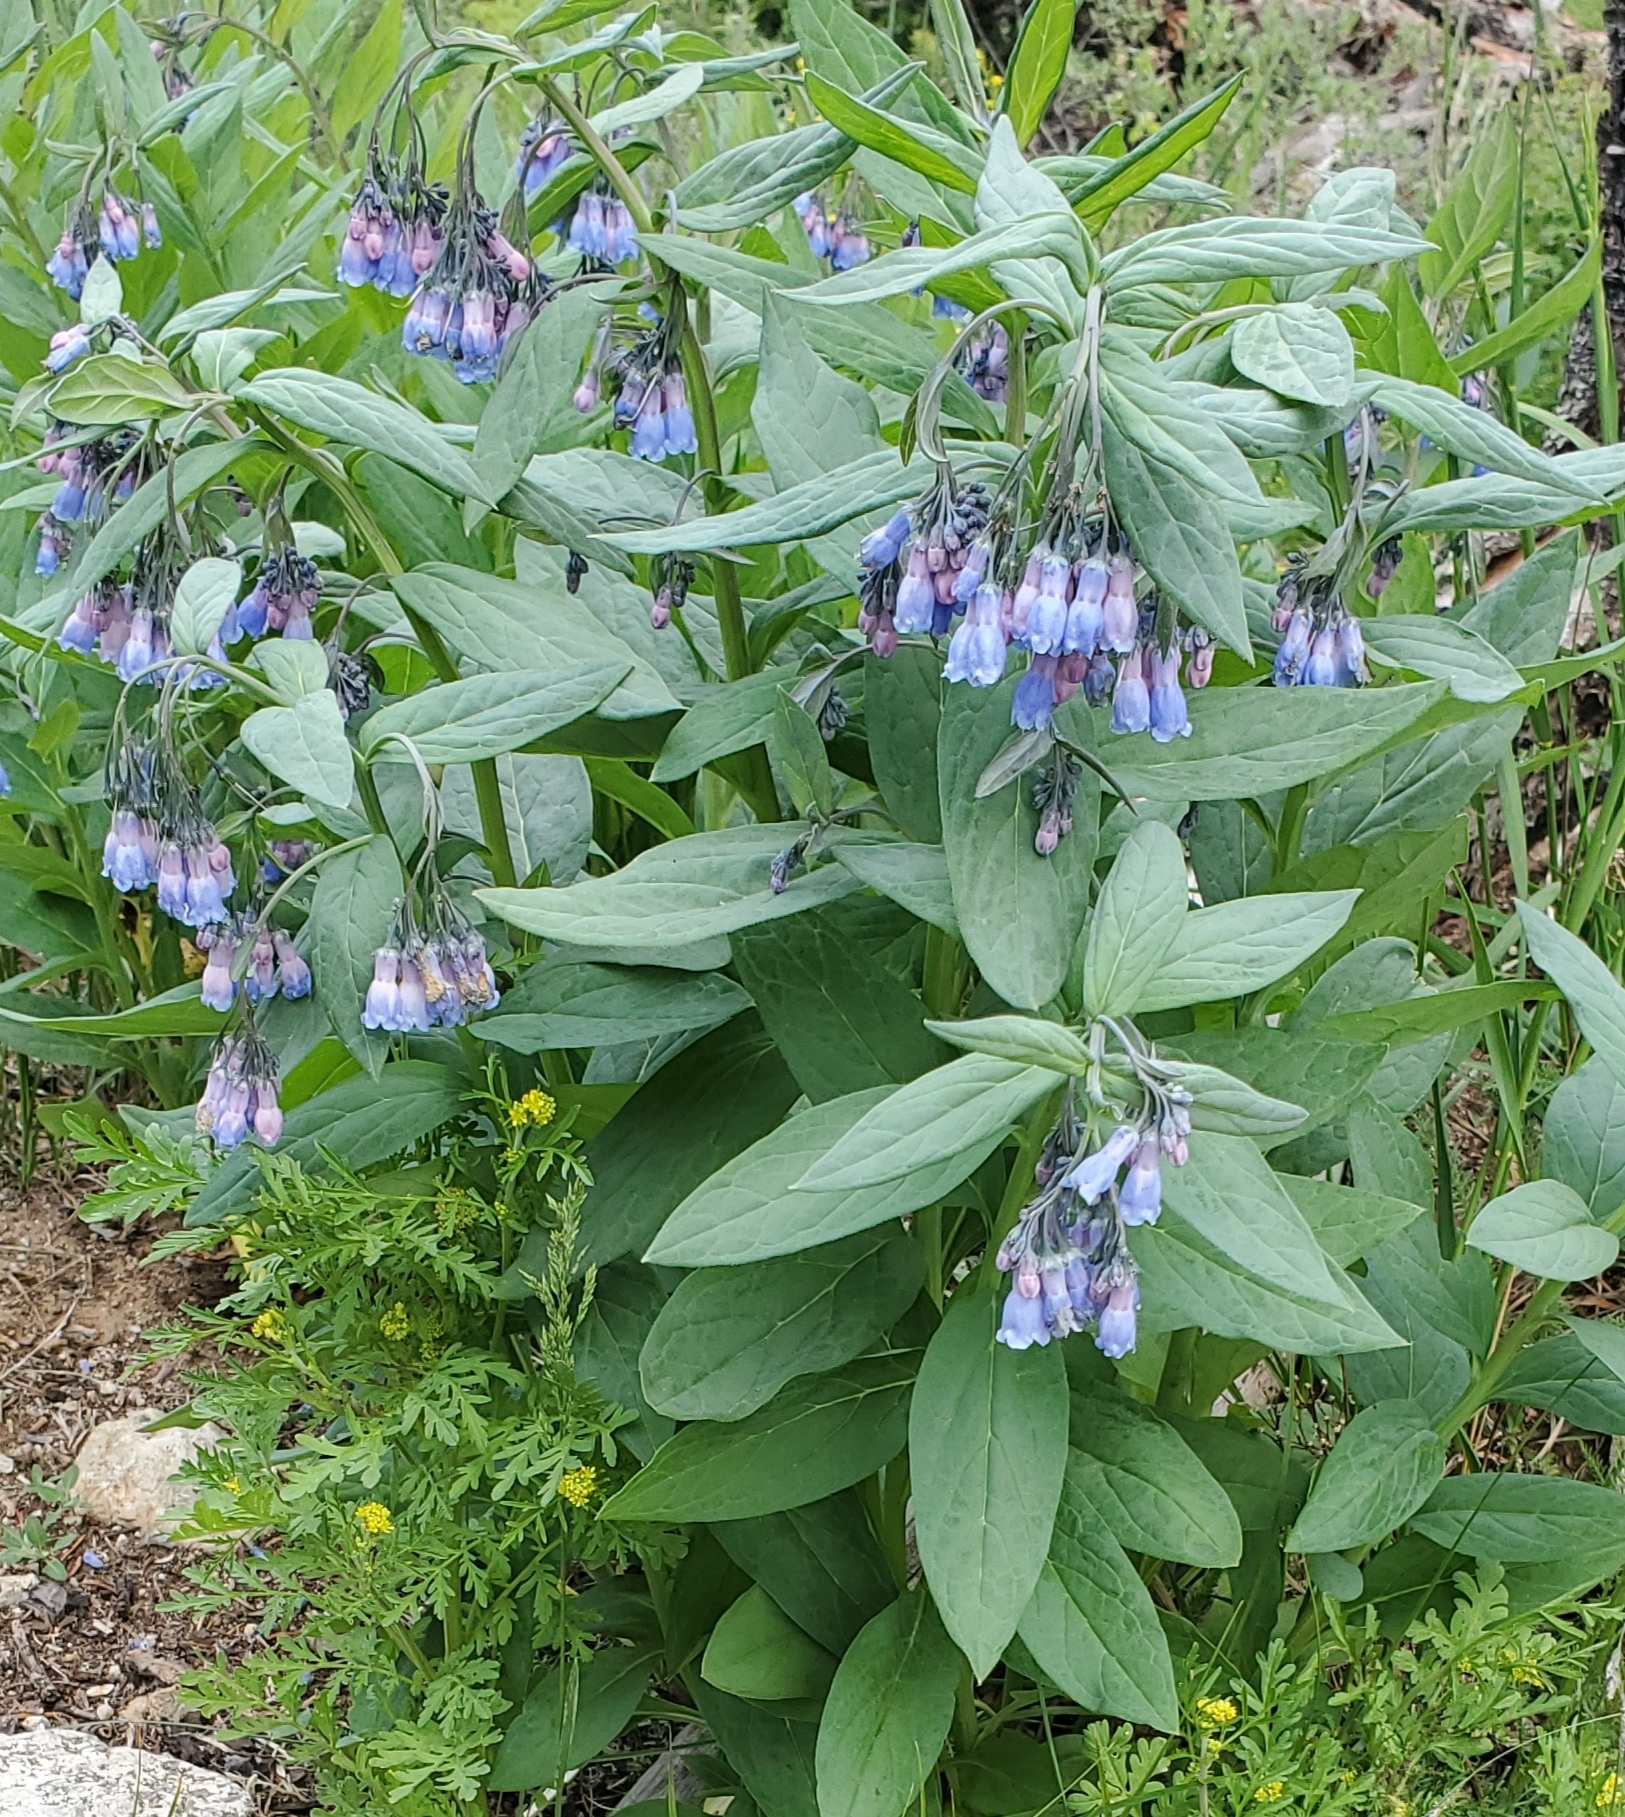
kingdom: Plantae
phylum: Tracheophyta
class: Magnoliopsida
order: Boraginales
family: Boraginaceae
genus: Mertensia
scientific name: Mertensia ciliata
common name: Tall chiming-bells
